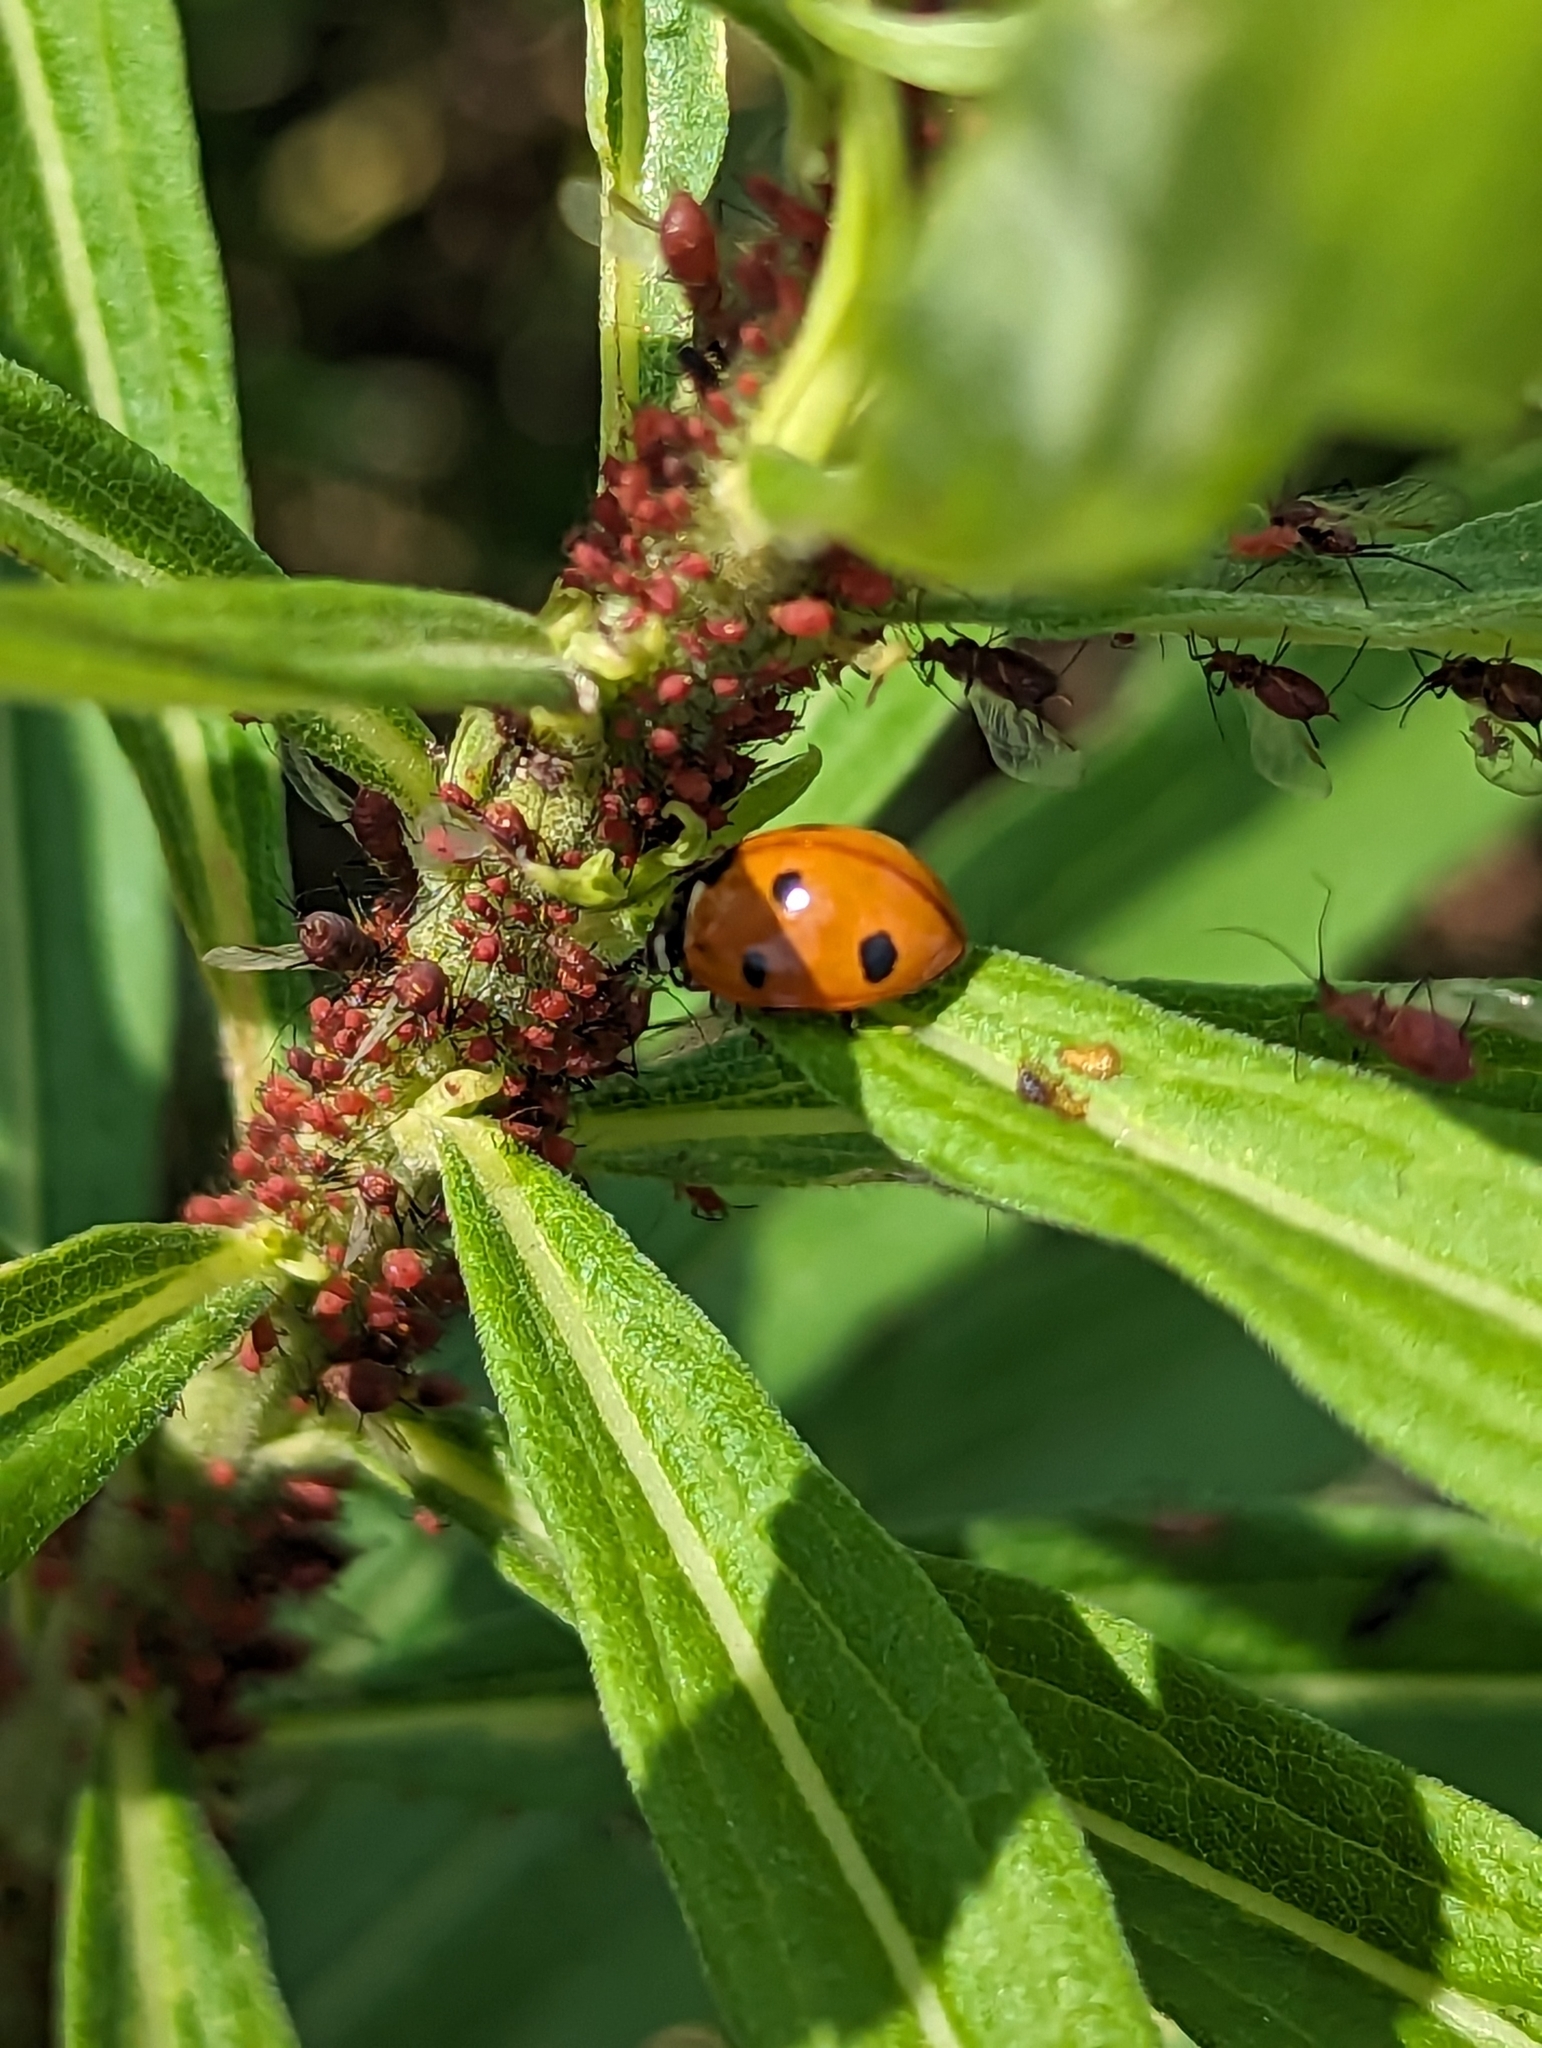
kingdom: Animalia
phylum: Arthropoda
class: Insecta
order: Coleoptera
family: Coccinellidae
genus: Coccinella
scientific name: Coccinella septempunctata
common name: Sevenspotted lady beetle
